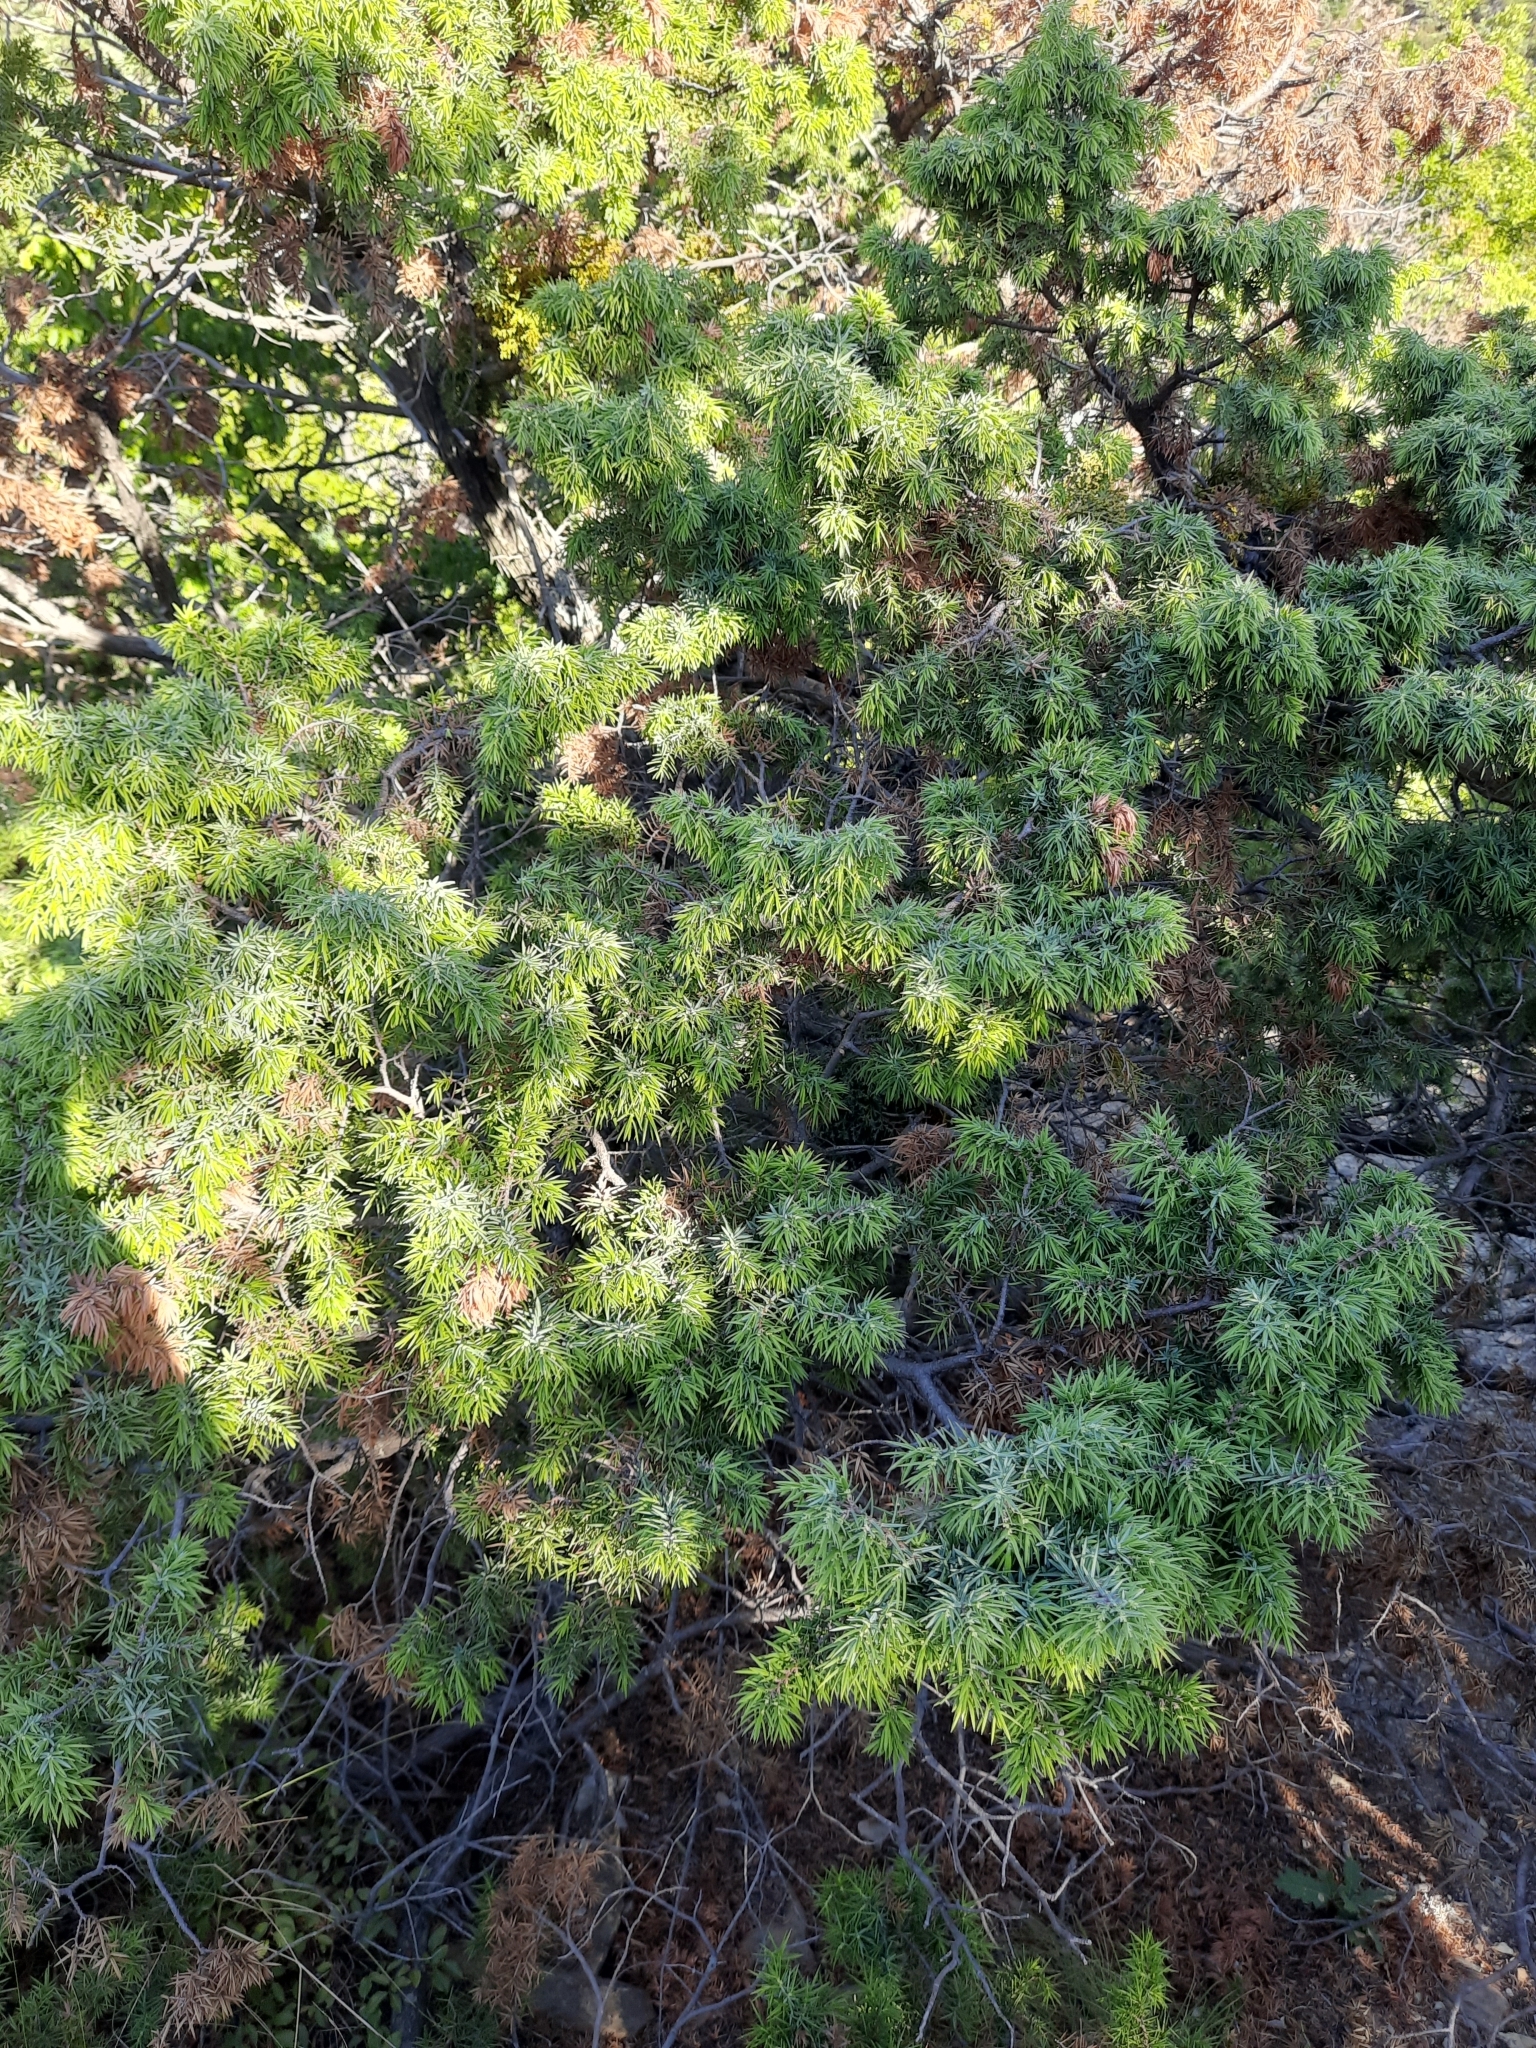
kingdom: Plantae
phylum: Tracheophyta
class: Pinopsida
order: Pinales
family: Cupressaceae
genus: Juniperus
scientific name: Juniperus oxycedrus
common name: Prickly juniper
